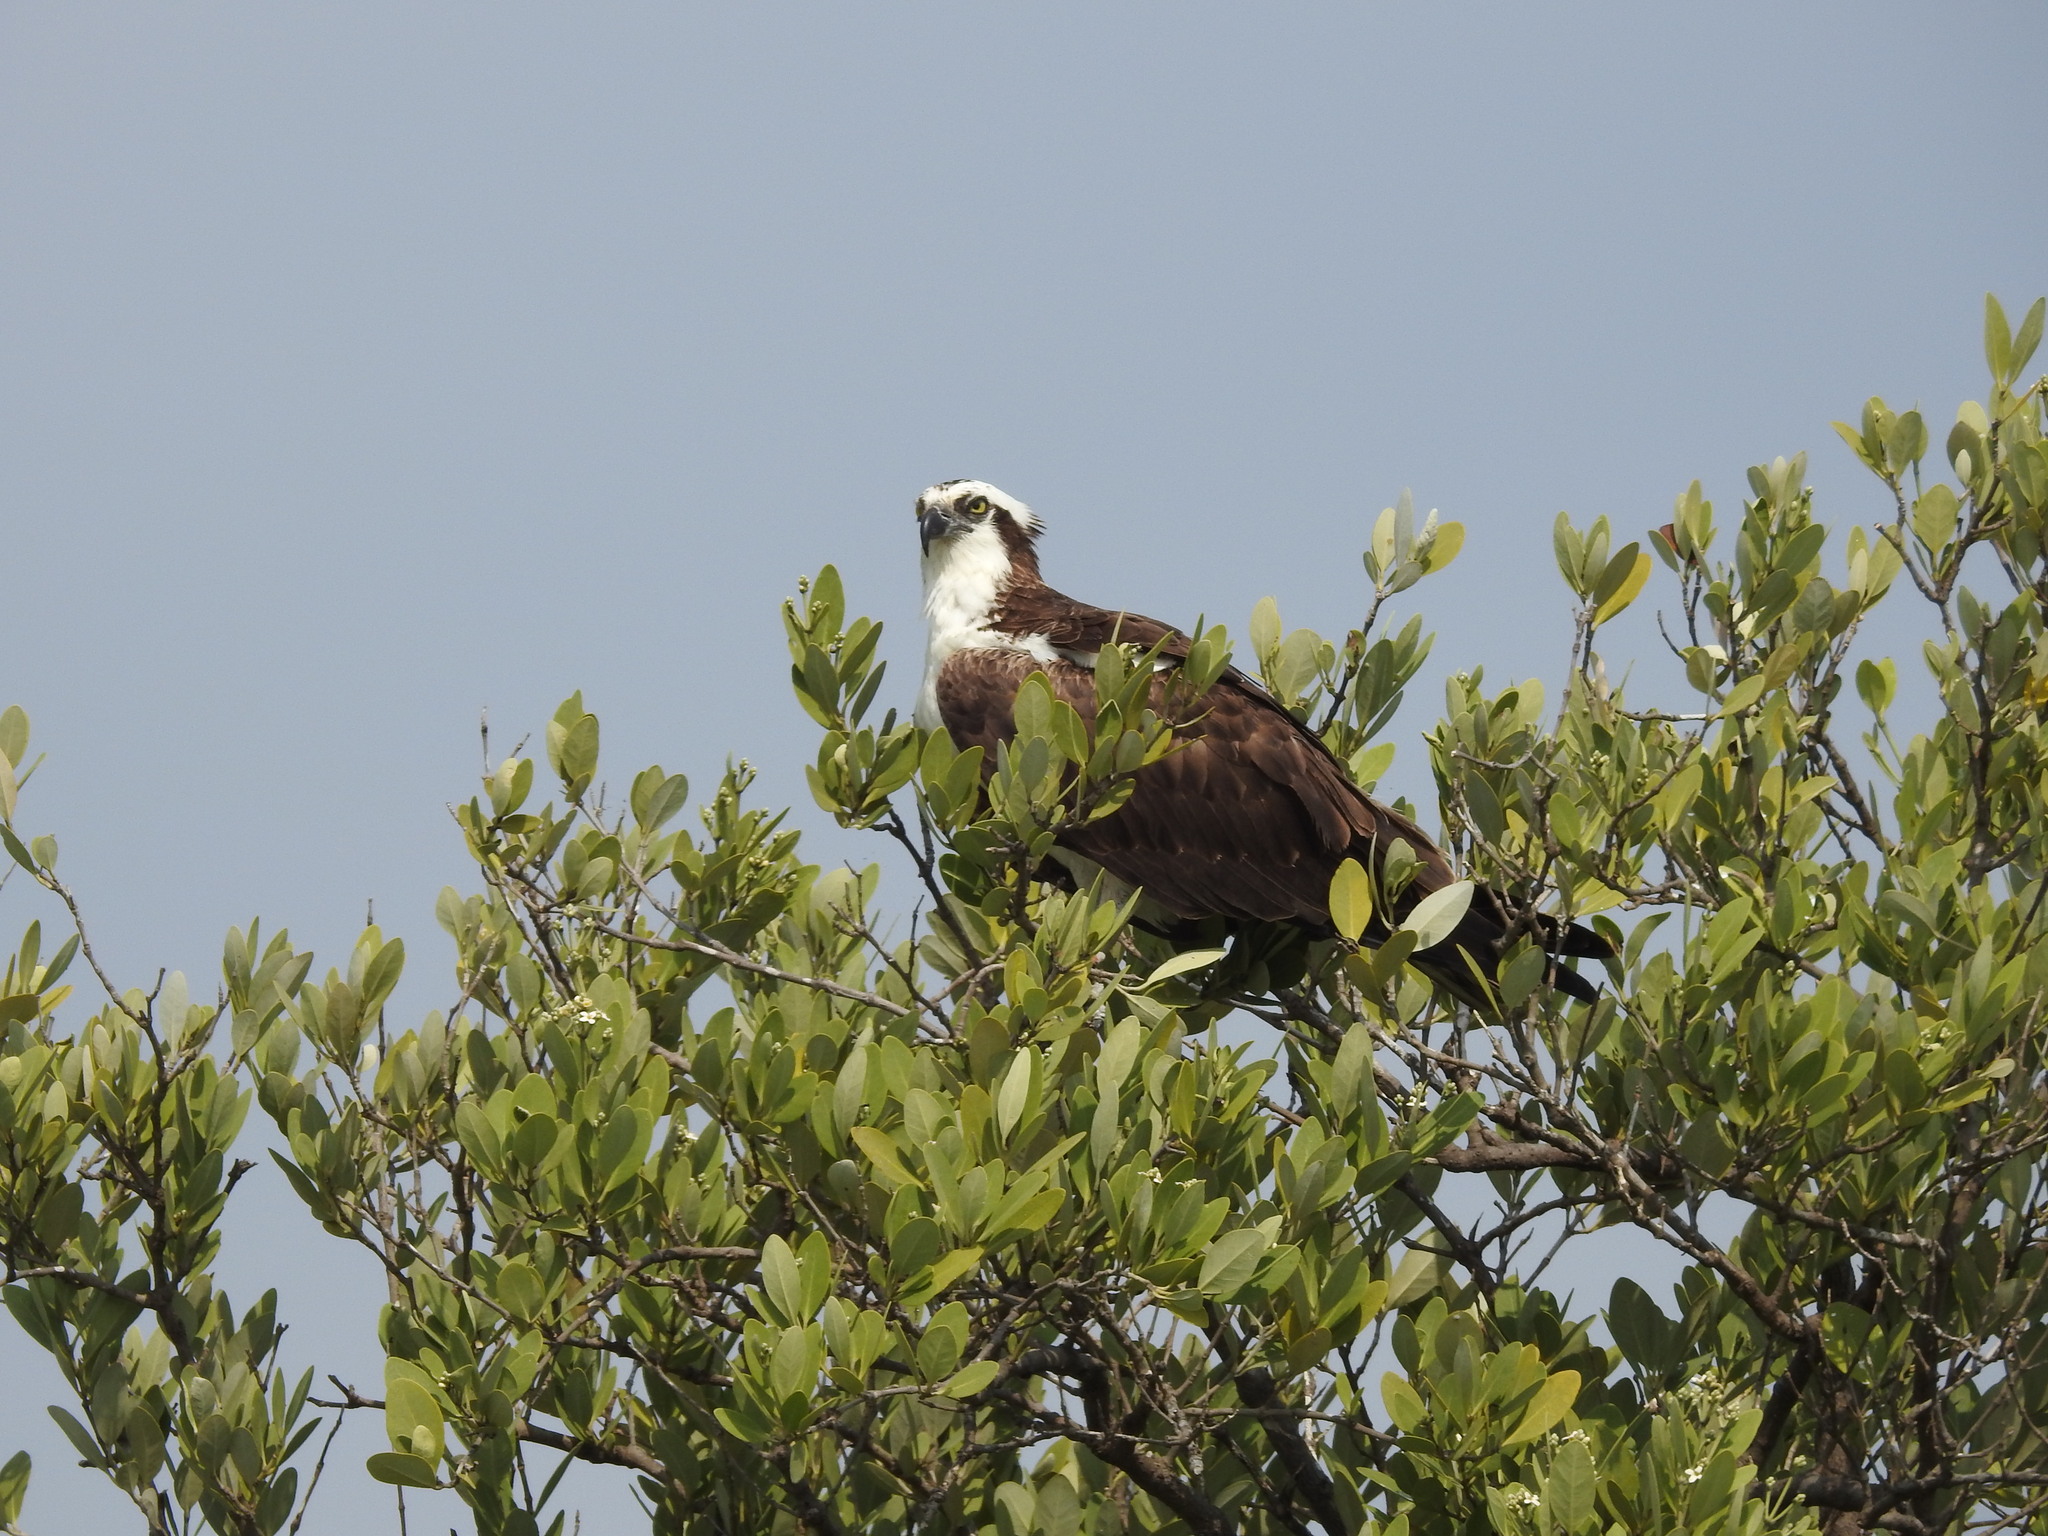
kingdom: Animalia
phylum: Chordata
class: Aves
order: Accipitriformes
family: Pandionidae
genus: Pandion
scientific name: Pandion haliaetus
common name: Osprey
